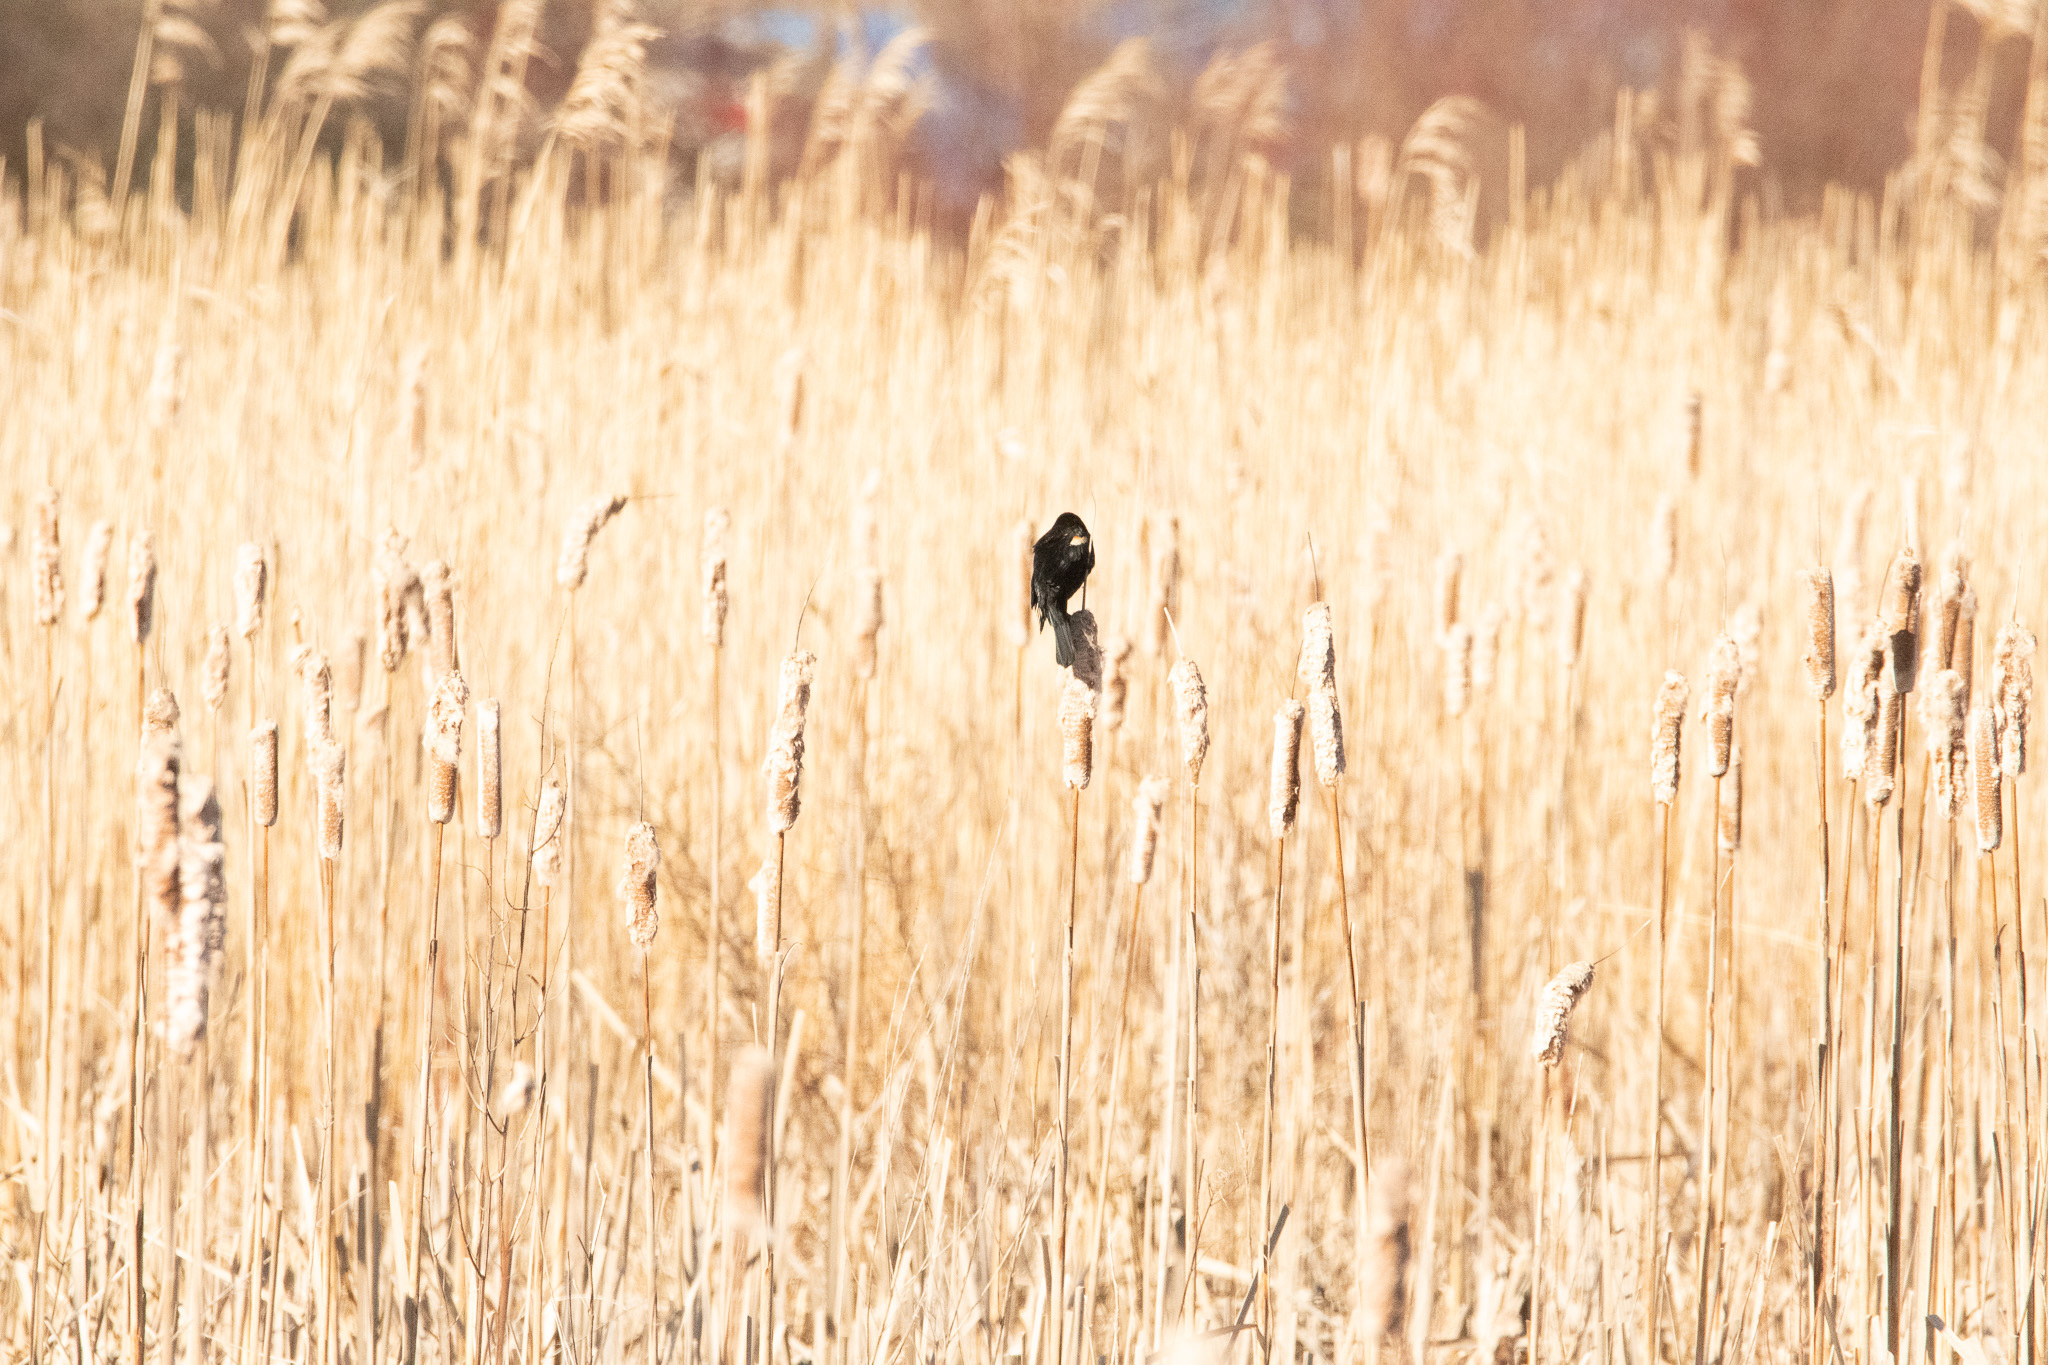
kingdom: Animalia
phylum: Chordata
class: Aves
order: Passeriformes
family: Icteridae
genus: Agelaius
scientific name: Agelaius phoeniceus
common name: Red-winged blackbird
